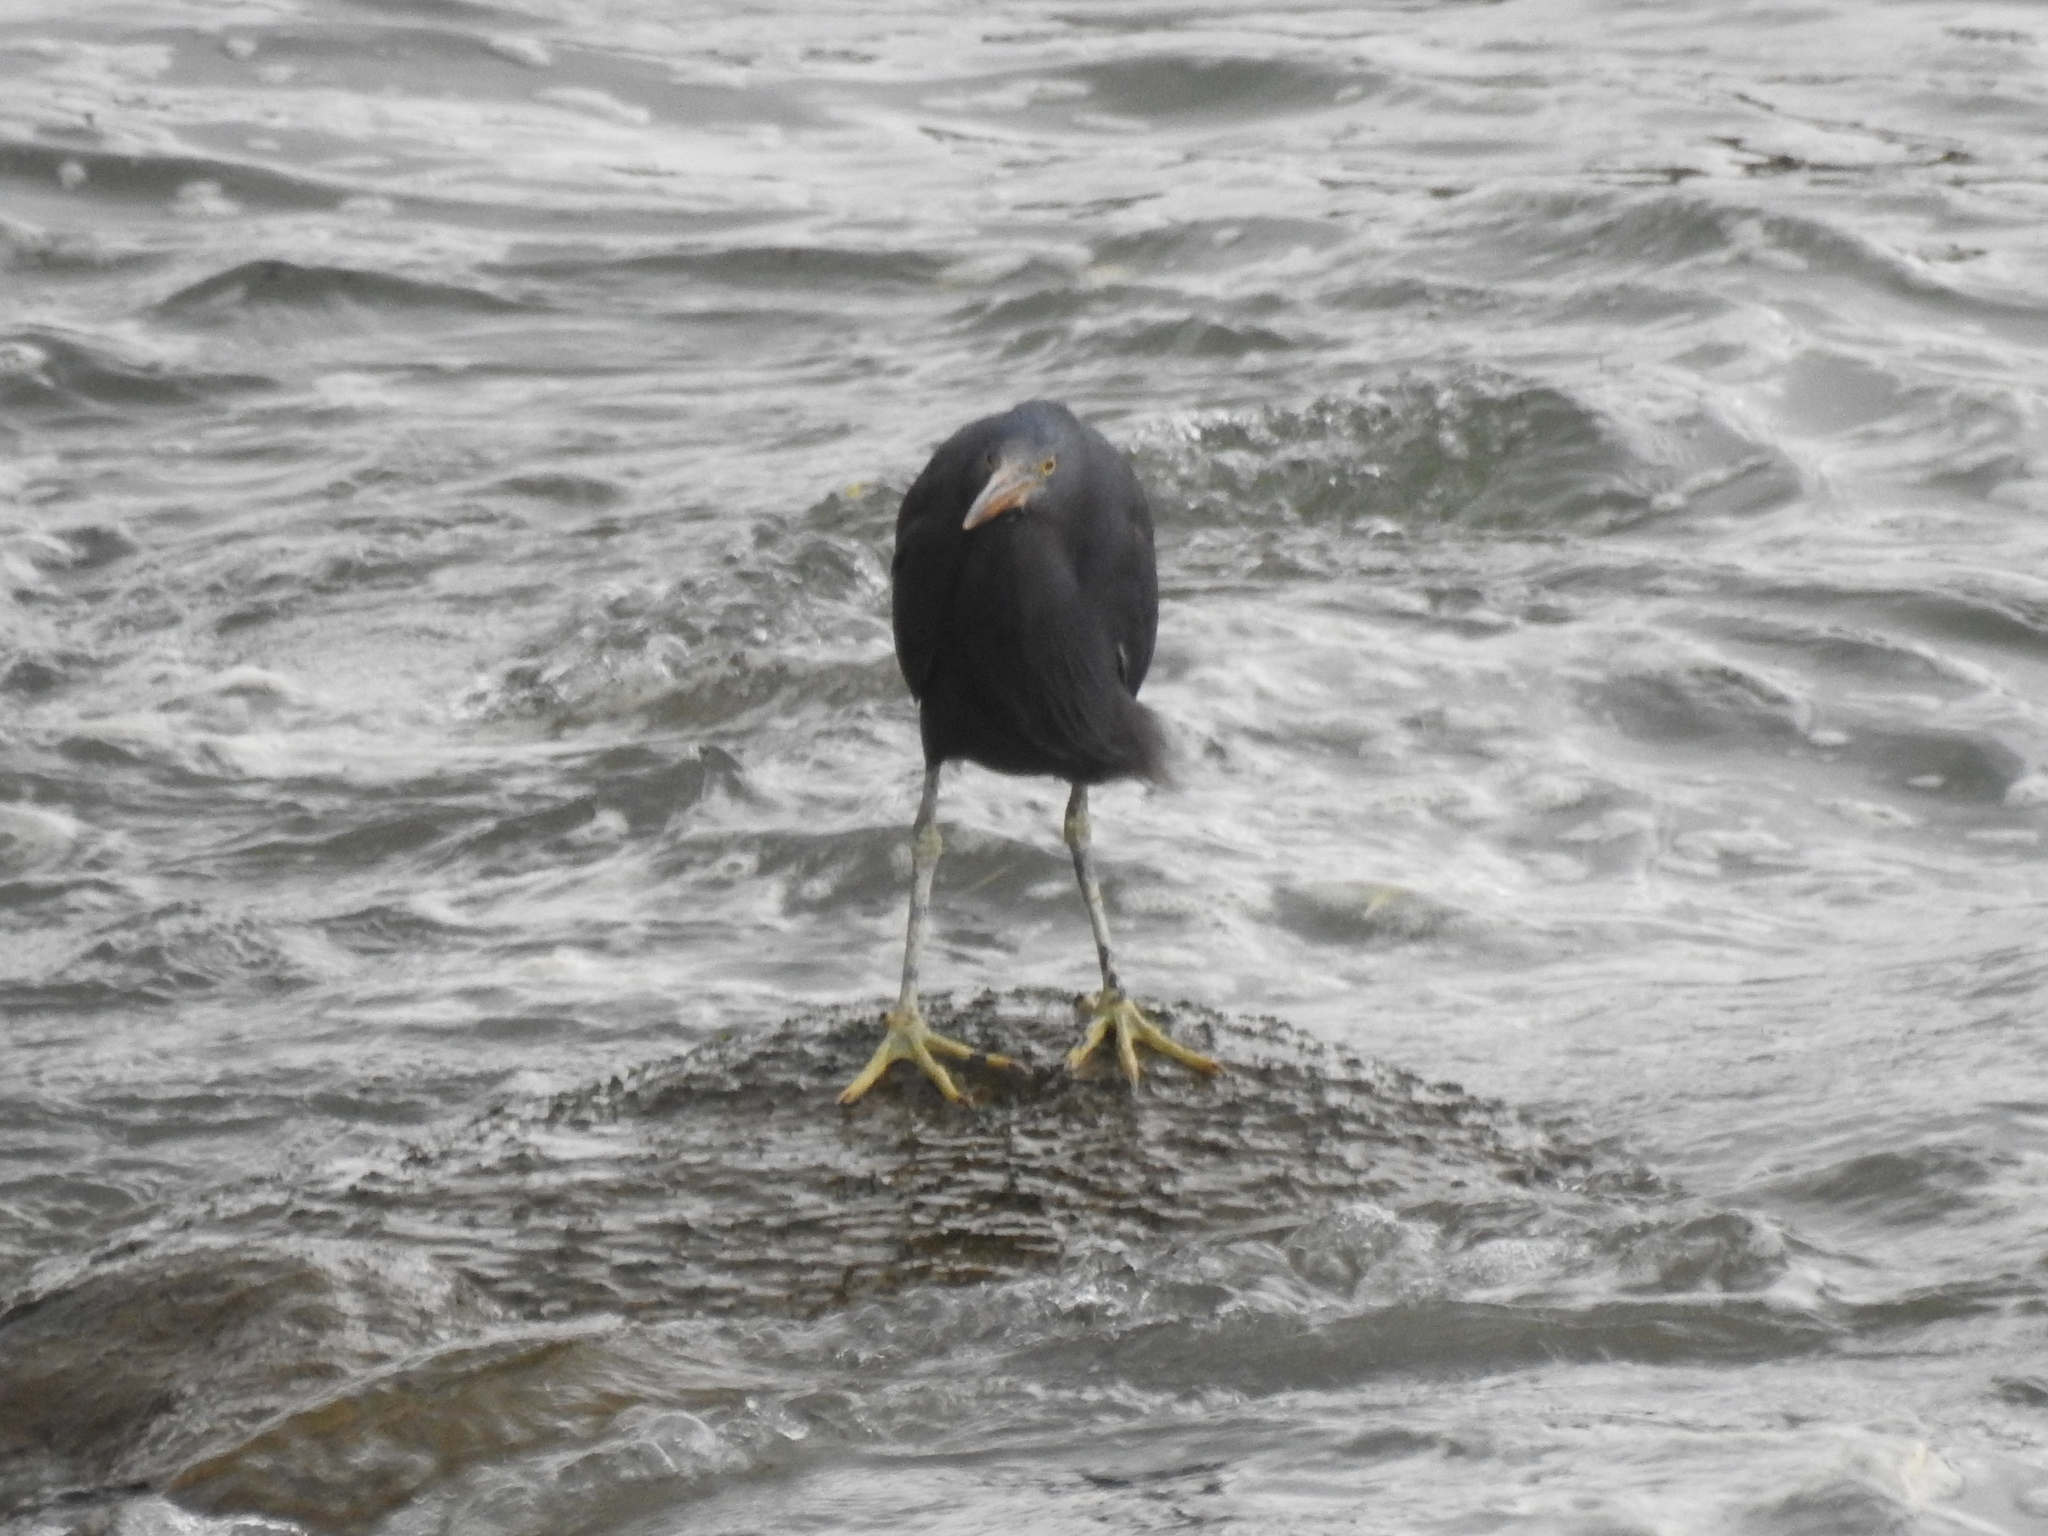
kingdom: Animalia
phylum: Chordata
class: Aves
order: Pelecaniformes
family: Ardeidae
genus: Egretta
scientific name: Egretta sacra
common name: Pacific reef heron
